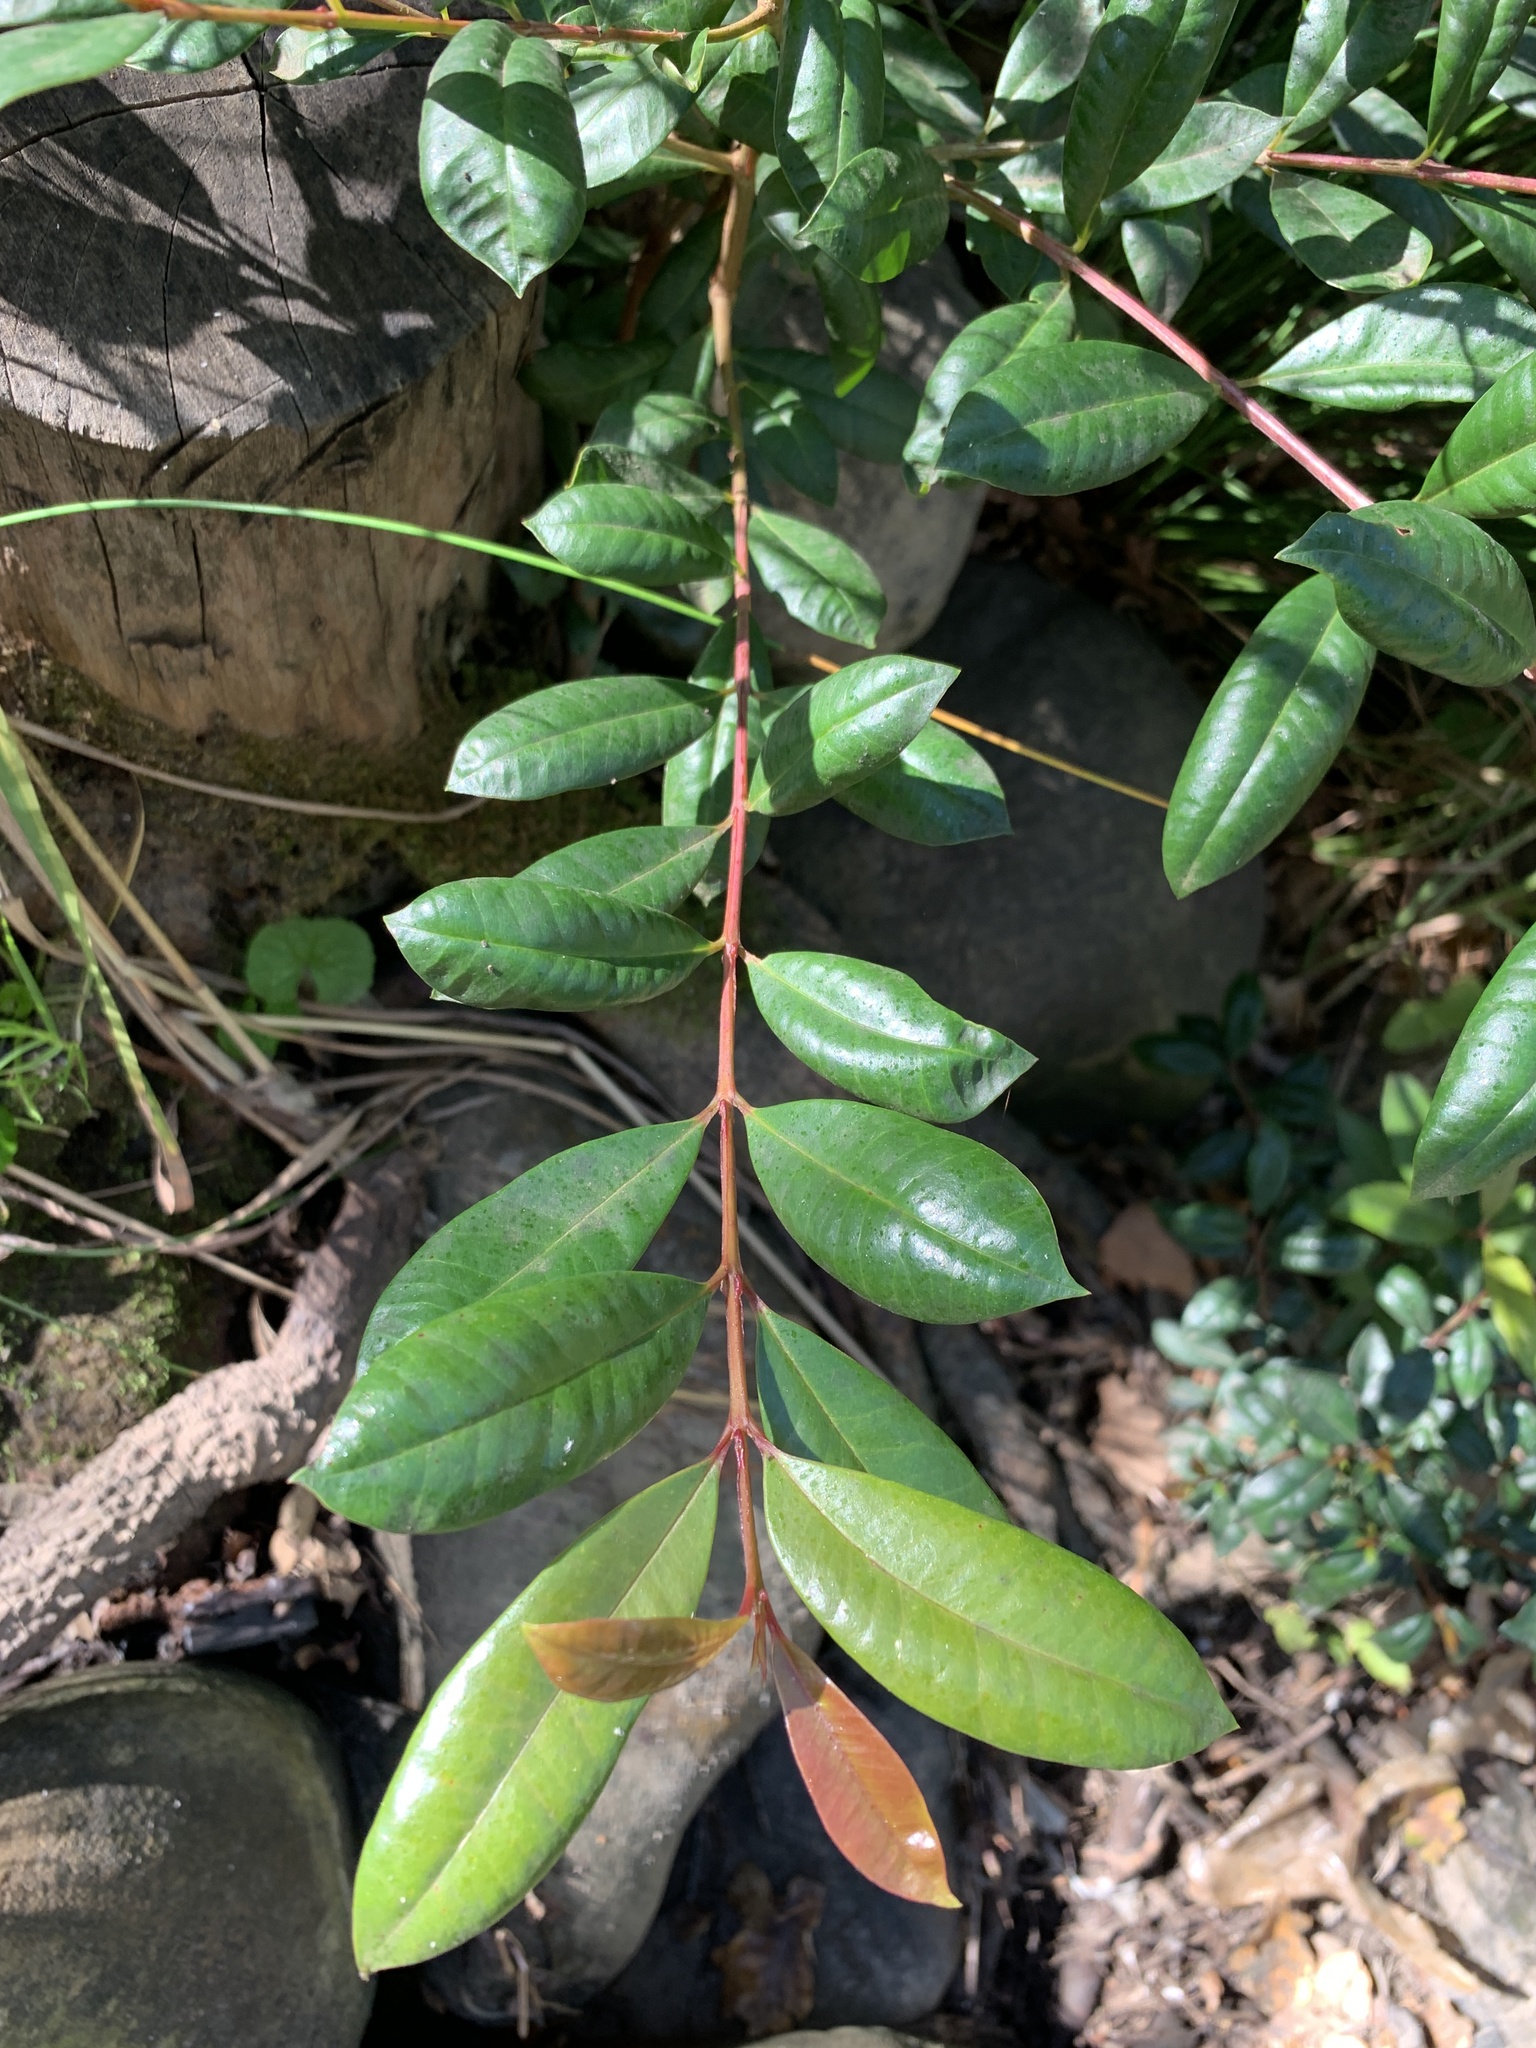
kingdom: Plantae
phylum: Tracheophyta
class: Magnoliopsida
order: Myrtales
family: Myrtaceae
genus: Syzygium
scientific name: Syzygium australe
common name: Australian brush-cherry
